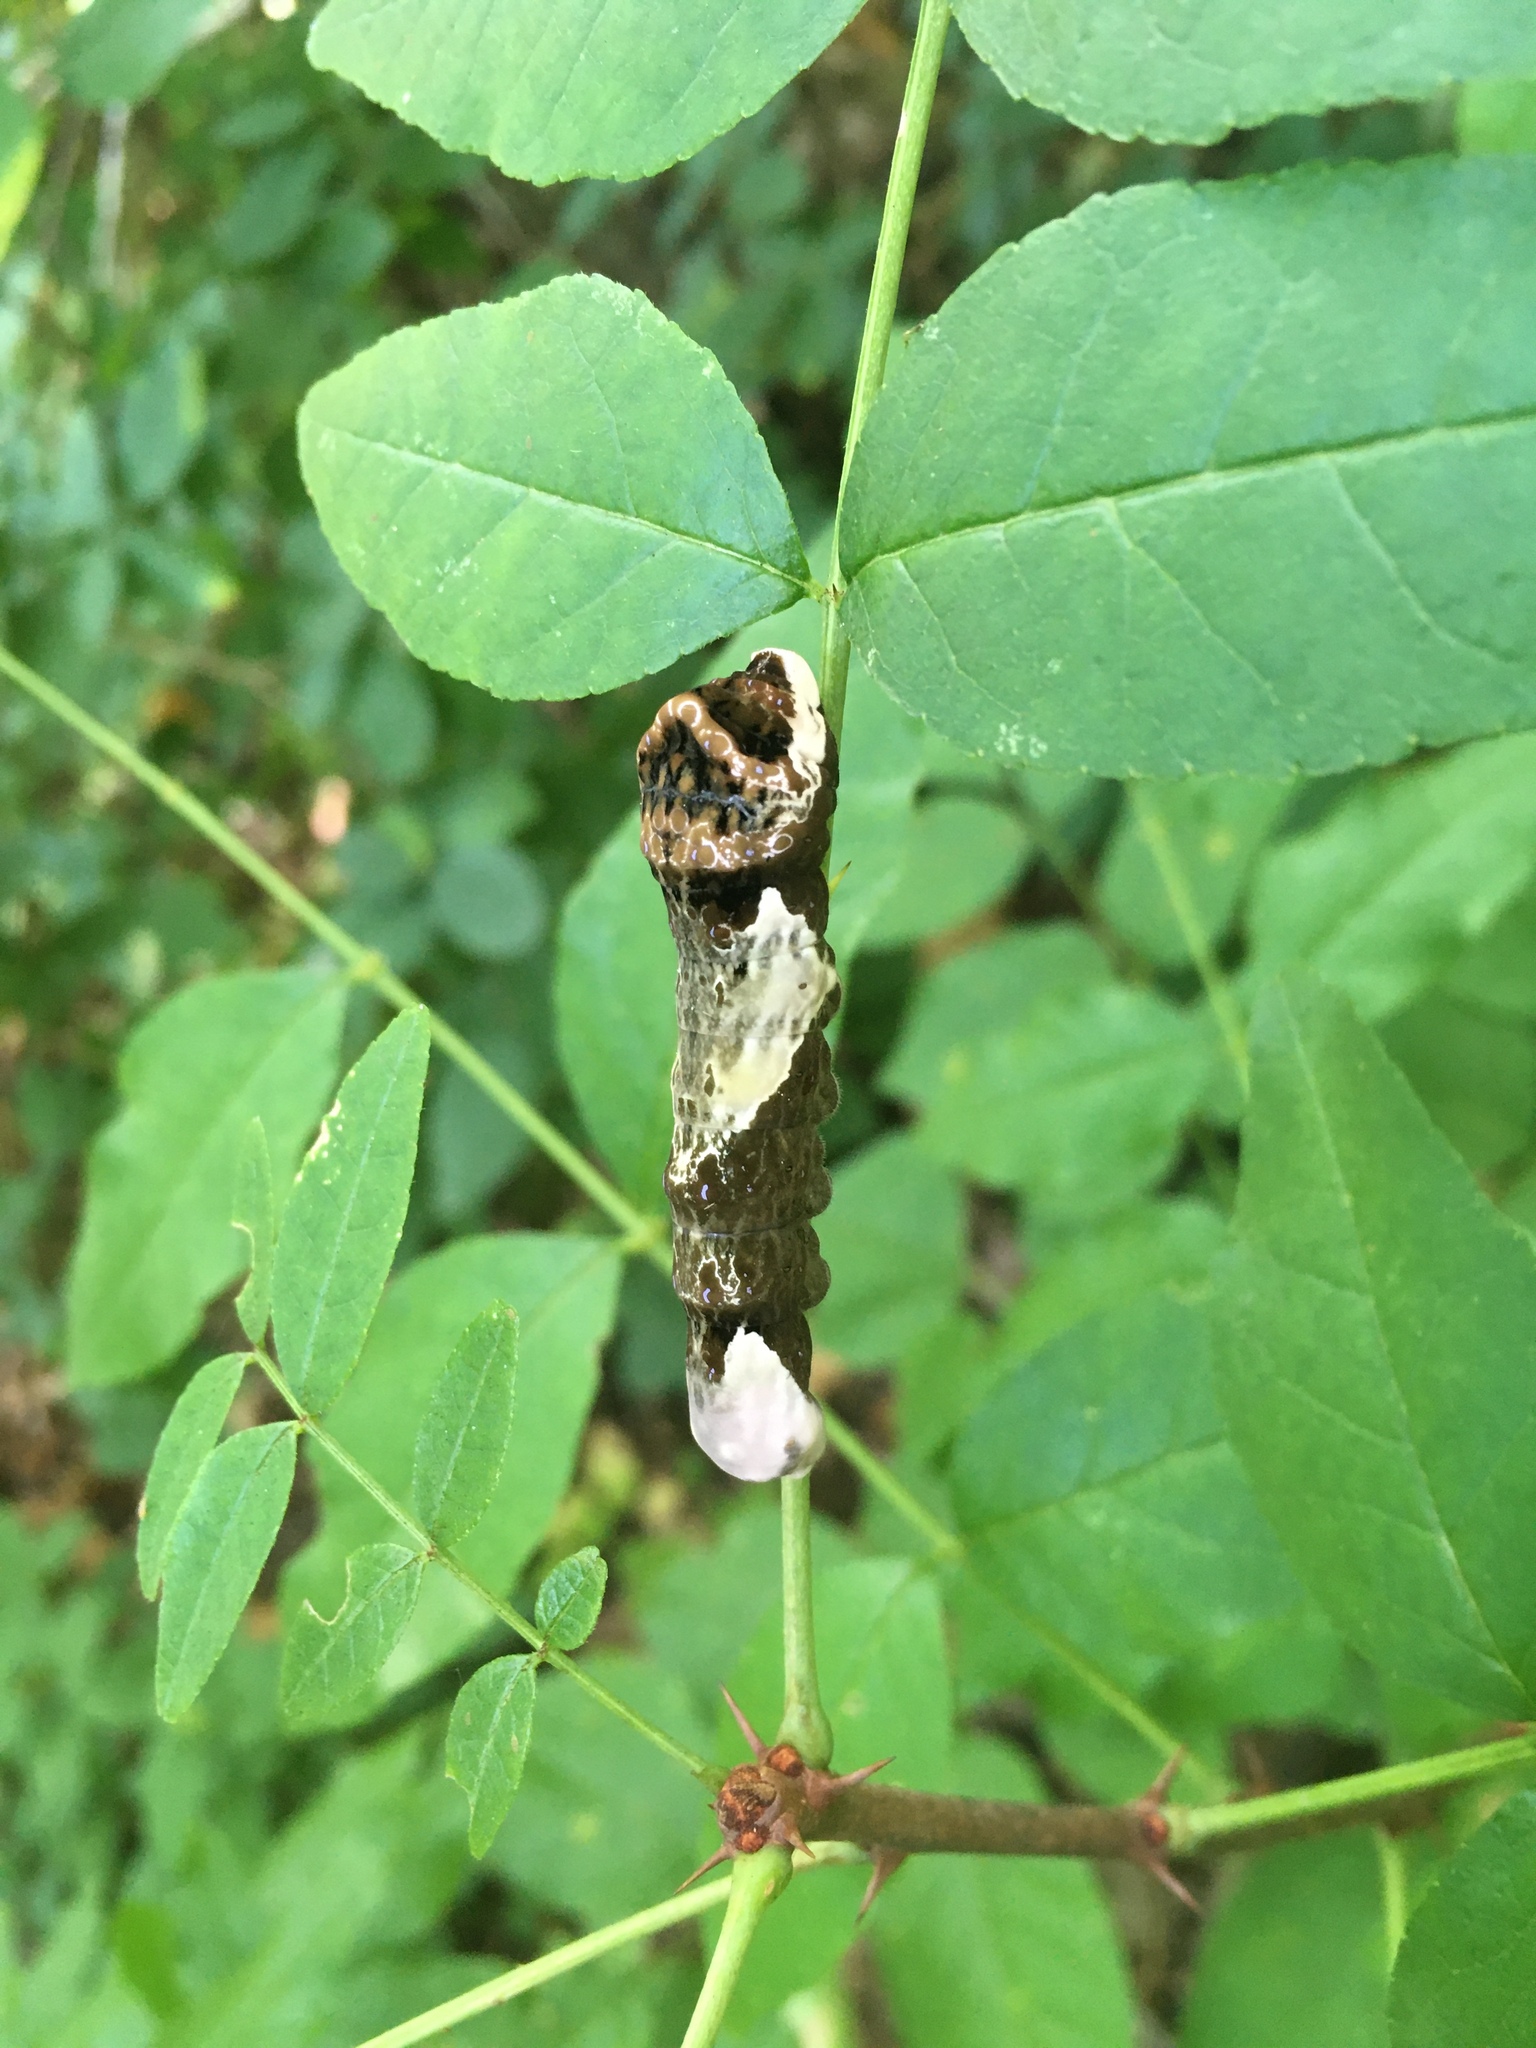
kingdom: Animalia
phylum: Arthropoda
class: Insecta
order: Lepidoptera
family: Papilionidae
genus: Papilio
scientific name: Papilio cresphontes
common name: Giant swallowtail
